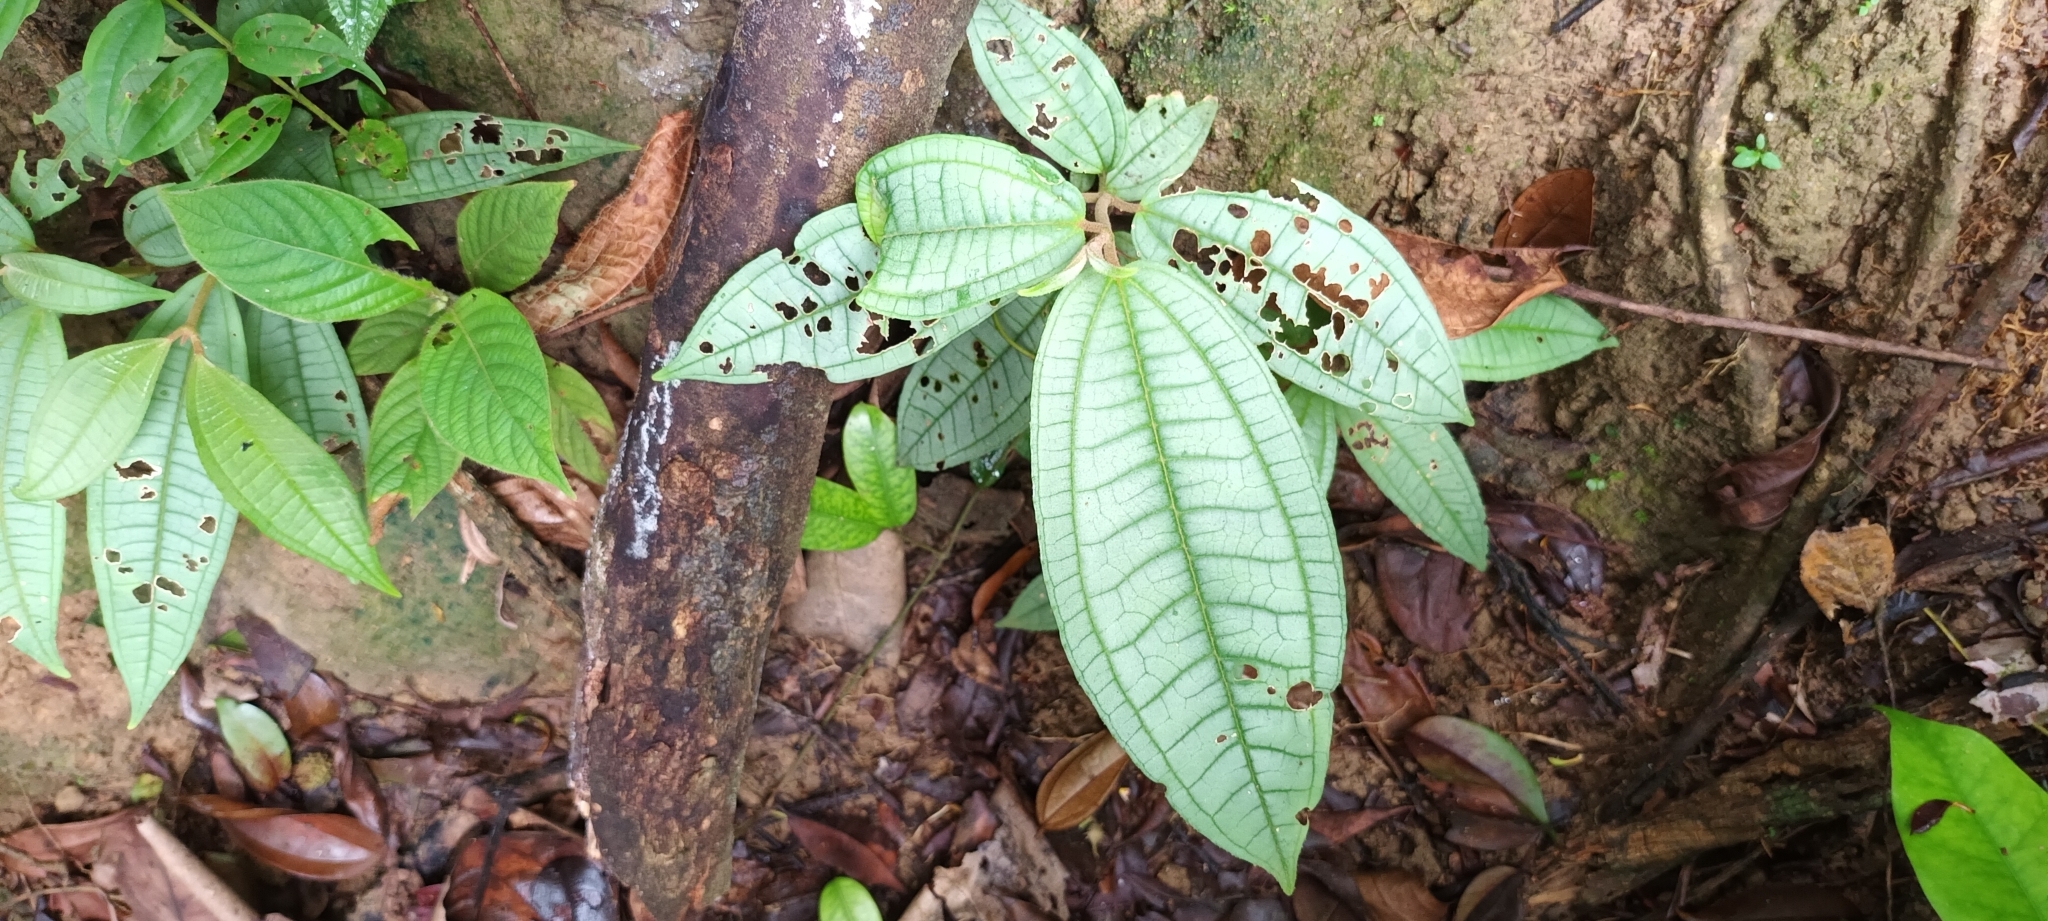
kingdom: Plantae
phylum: Tracheophyta
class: Magnoliopsida
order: Myrtales
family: Melastomataceae
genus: Melastoma
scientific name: Melastoma malabathricum
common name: Indian-rhododendron
